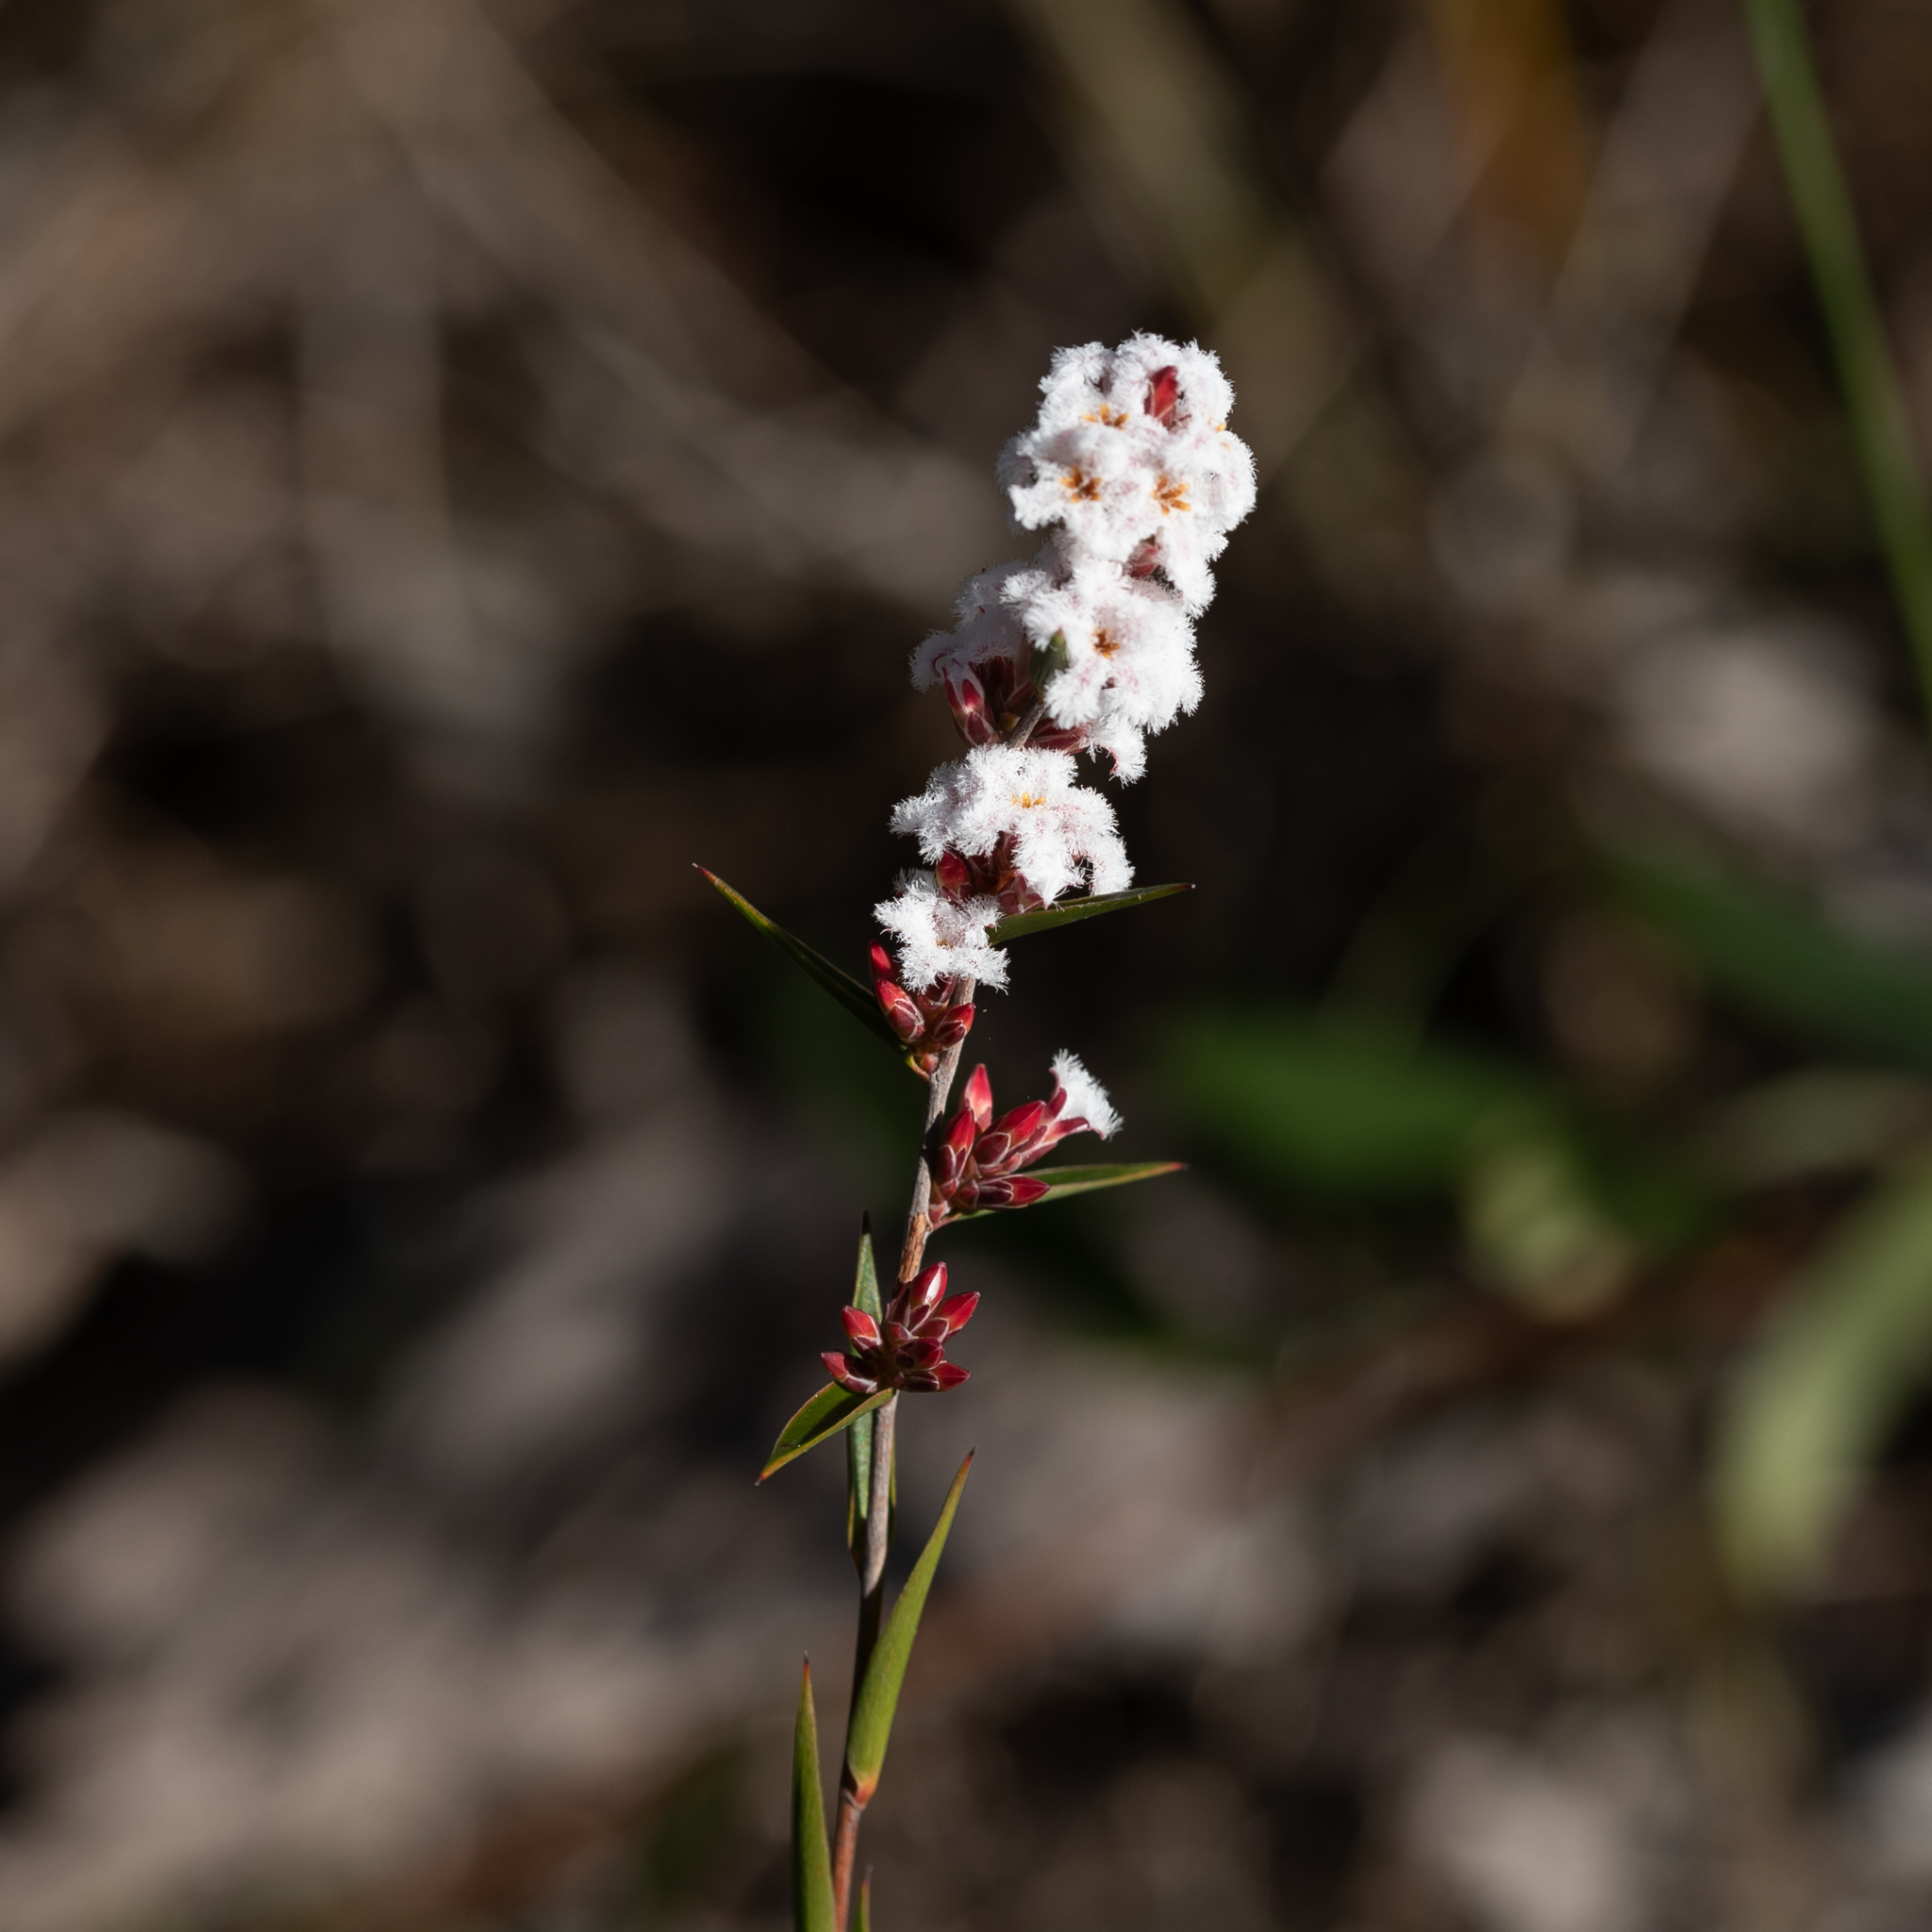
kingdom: Plantae
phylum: Tracheophyta
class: Magnoliopsida
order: Ericales
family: Ericaceae
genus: Leucopogon
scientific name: Leucopogon virgatus
